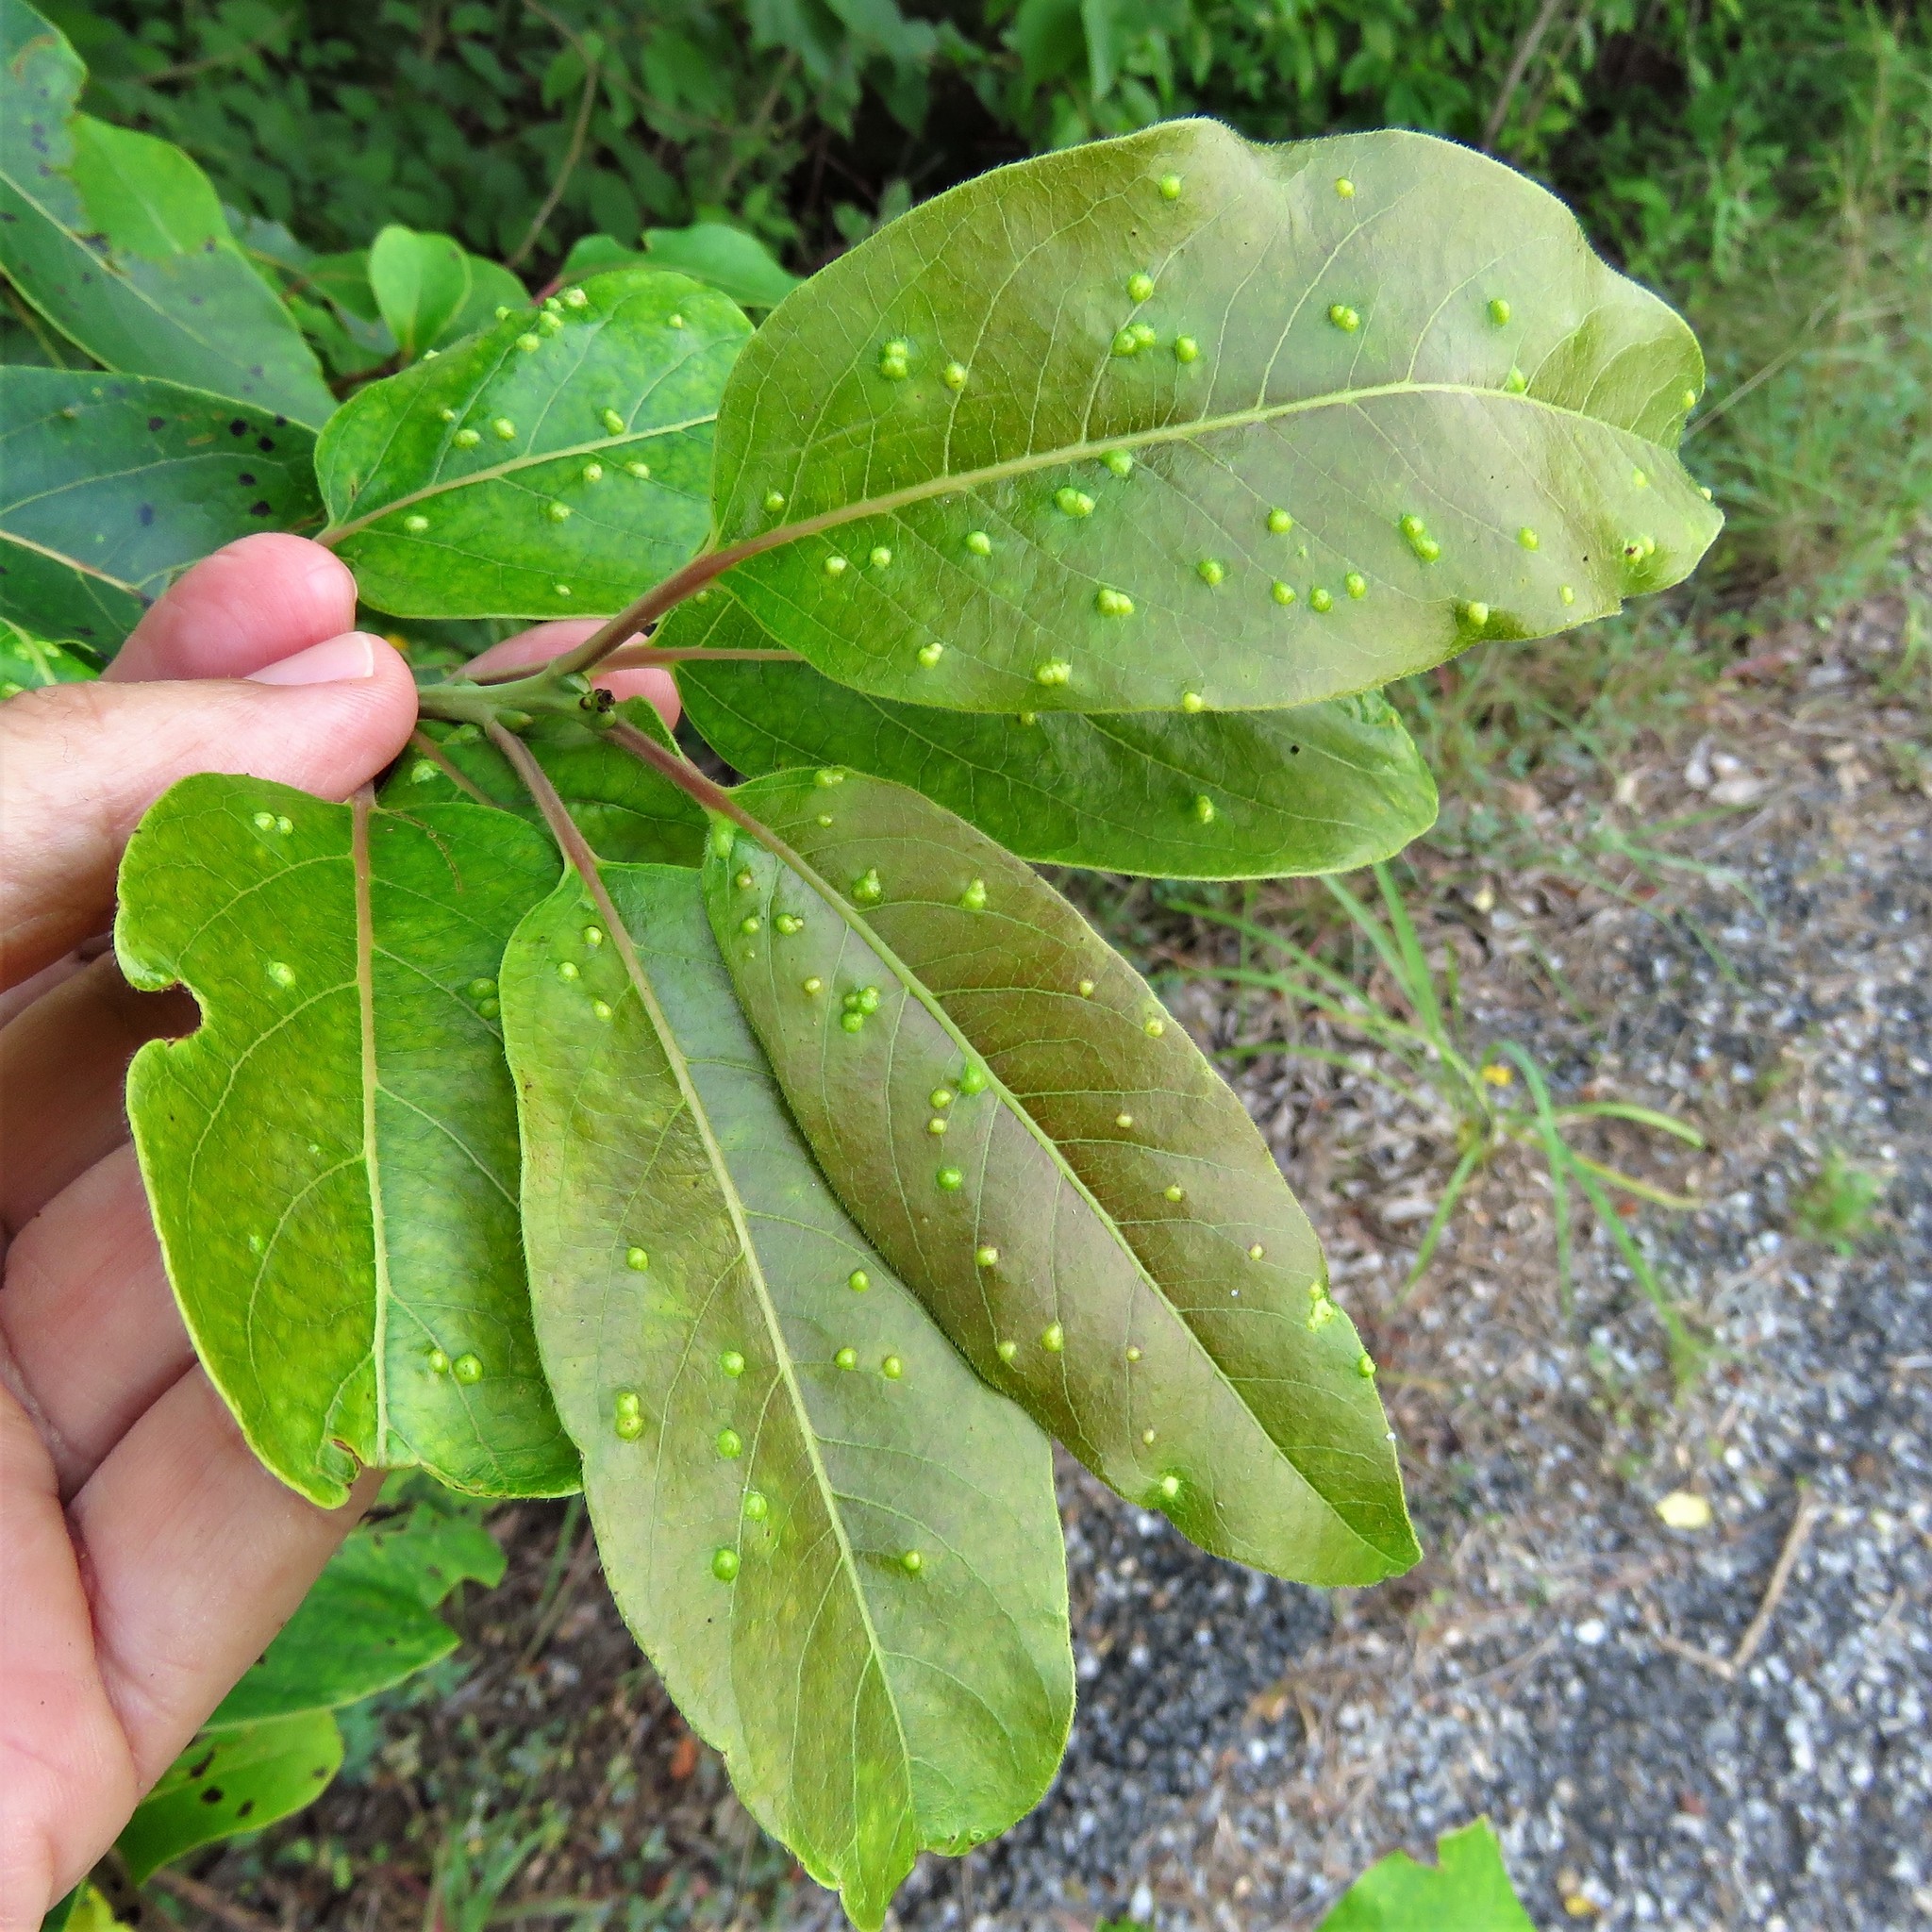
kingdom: Animalia
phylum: Arthropoda
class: Arachnida
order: Trombidiformes
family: Eriophyidae
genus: Aceria
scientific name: Aceria
